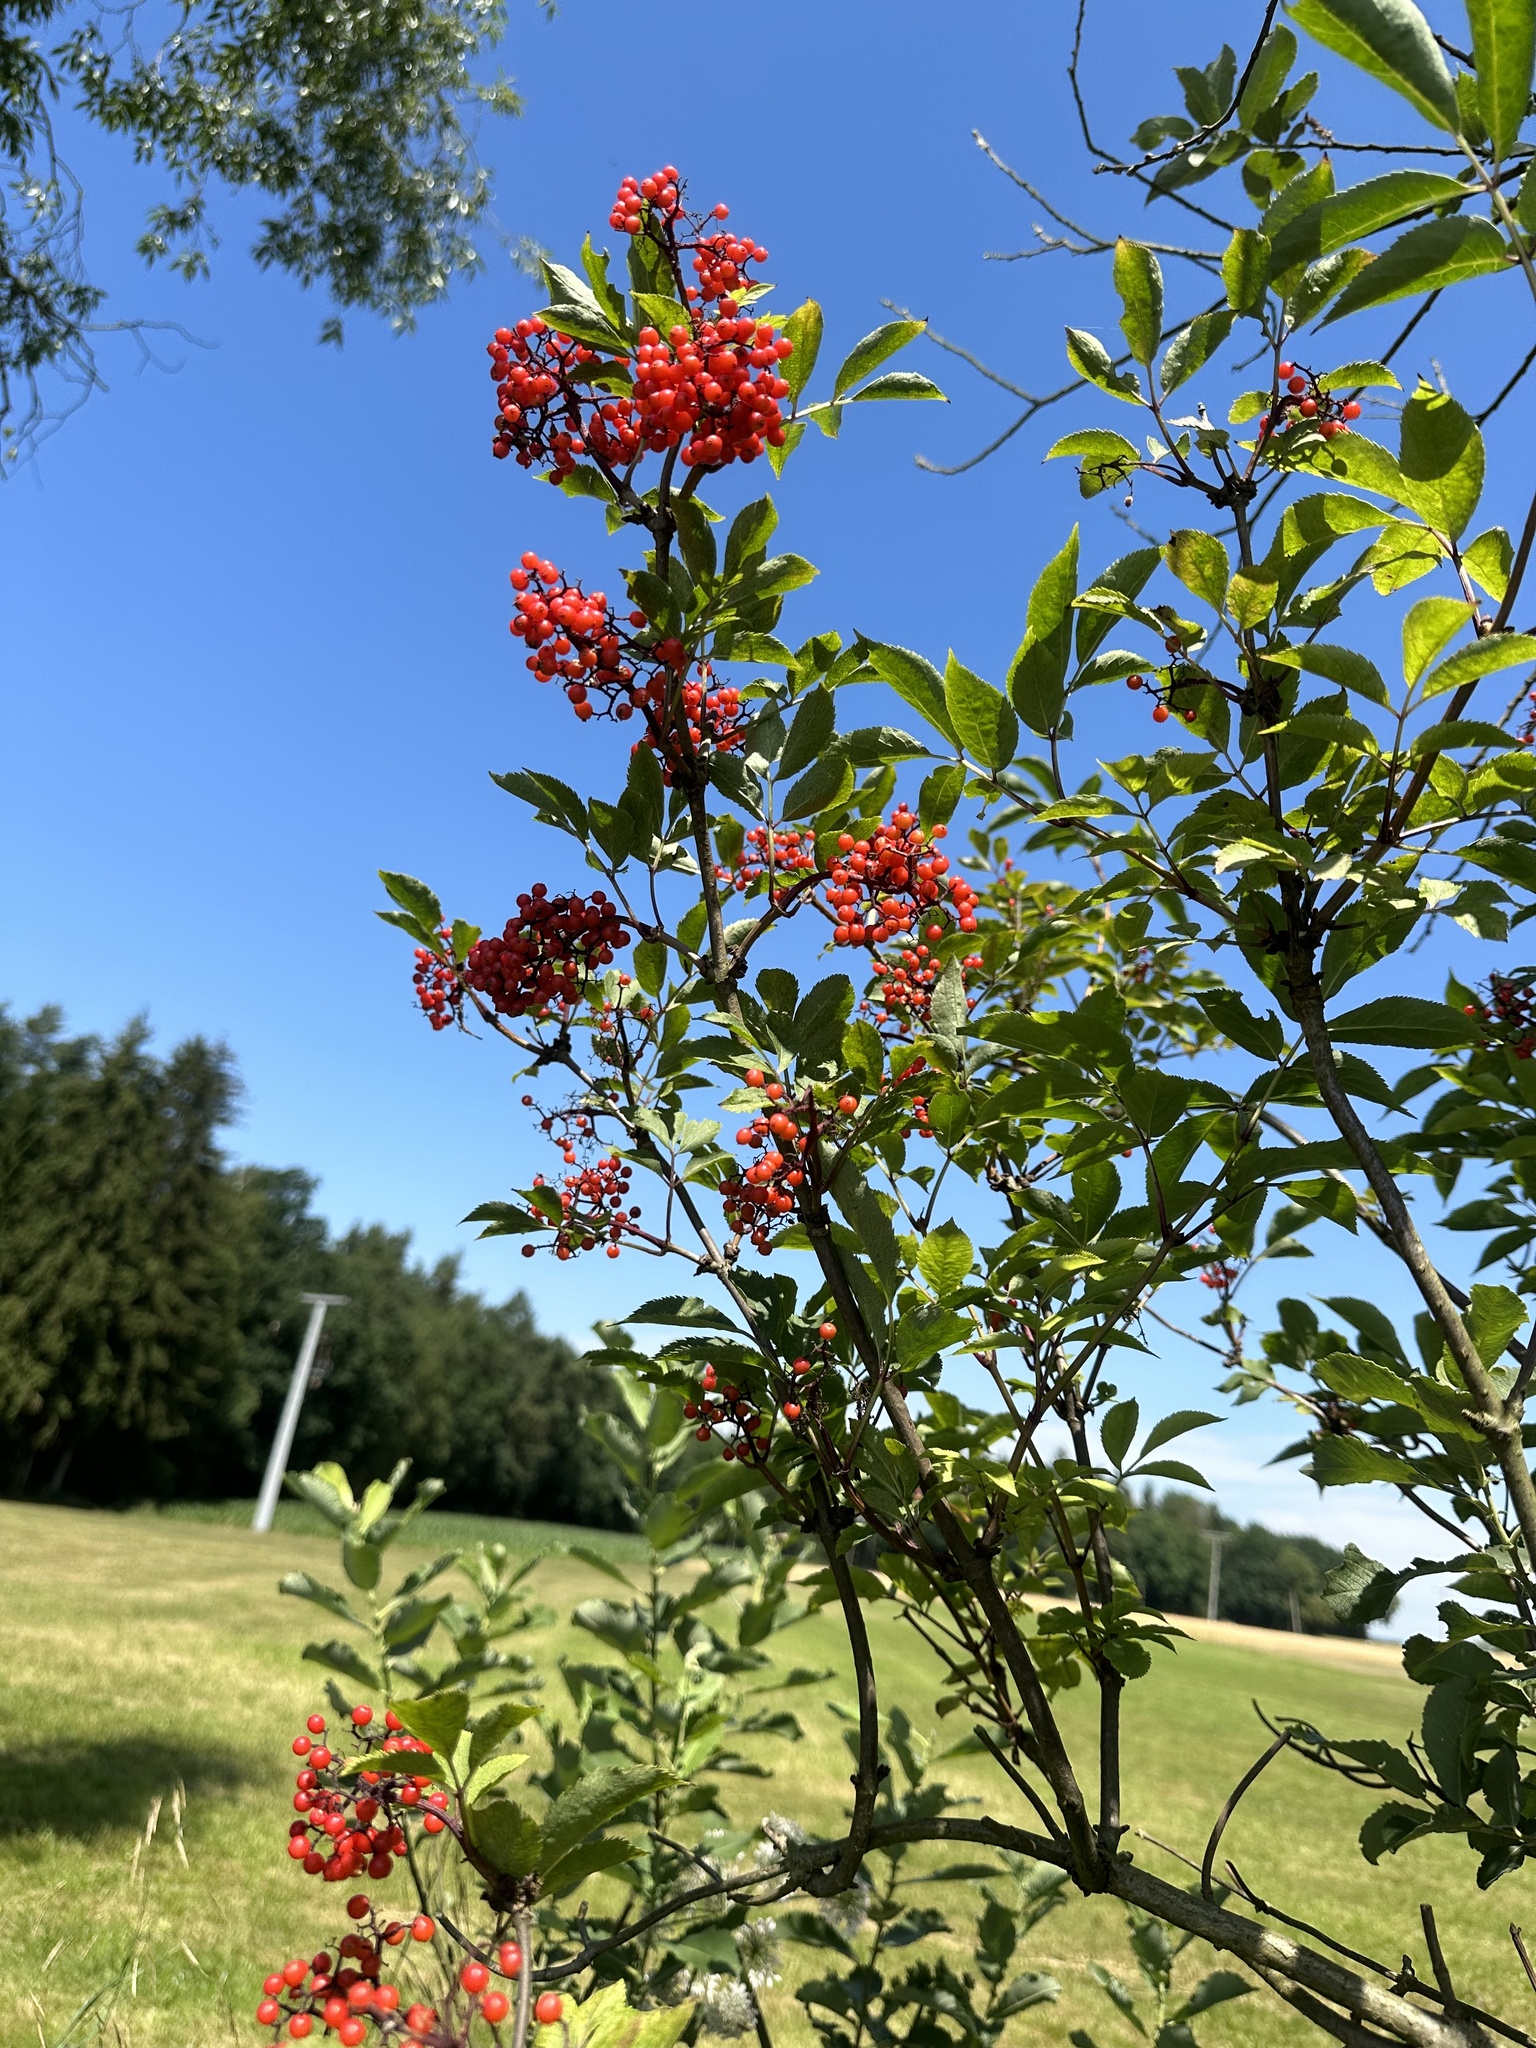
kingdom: Plantae
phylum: Tracheophyta
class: Magnoliopsida
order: Dipsacales
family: Viburnaceae
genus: Sambucus
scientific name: Sambucus racemosa
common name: Red-berried elder
